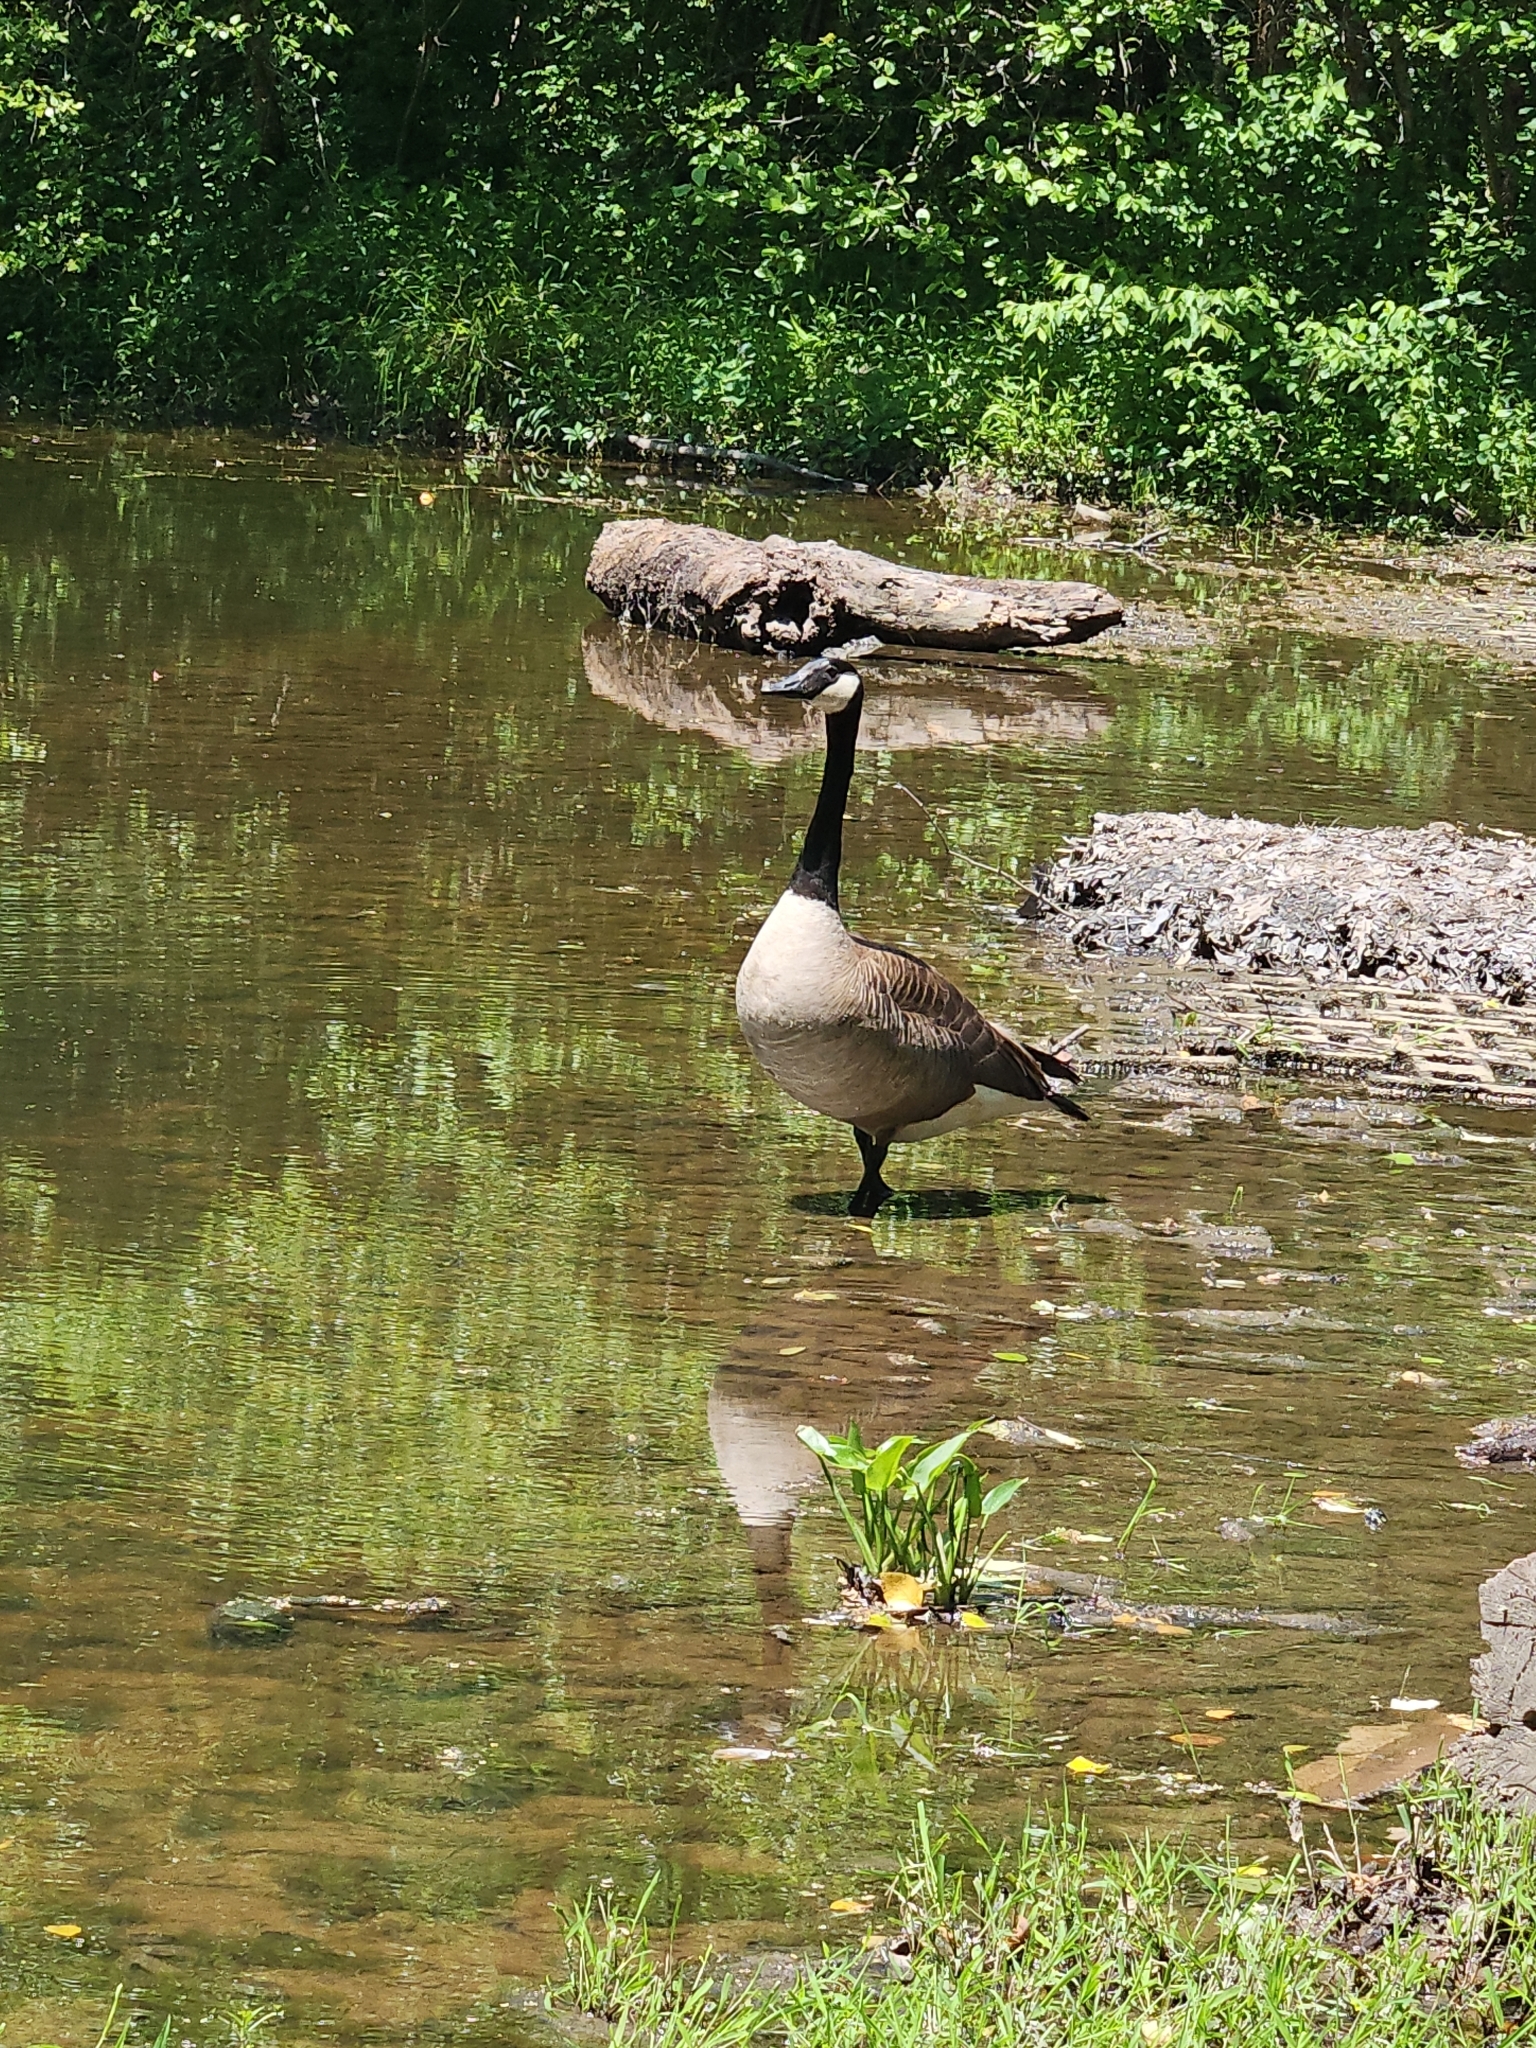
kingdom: Animalia
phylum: Chordata
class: Aves
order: Anseriformes
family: Anatidae
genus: Branta
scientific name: Branta canadensis
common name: Canada goose
